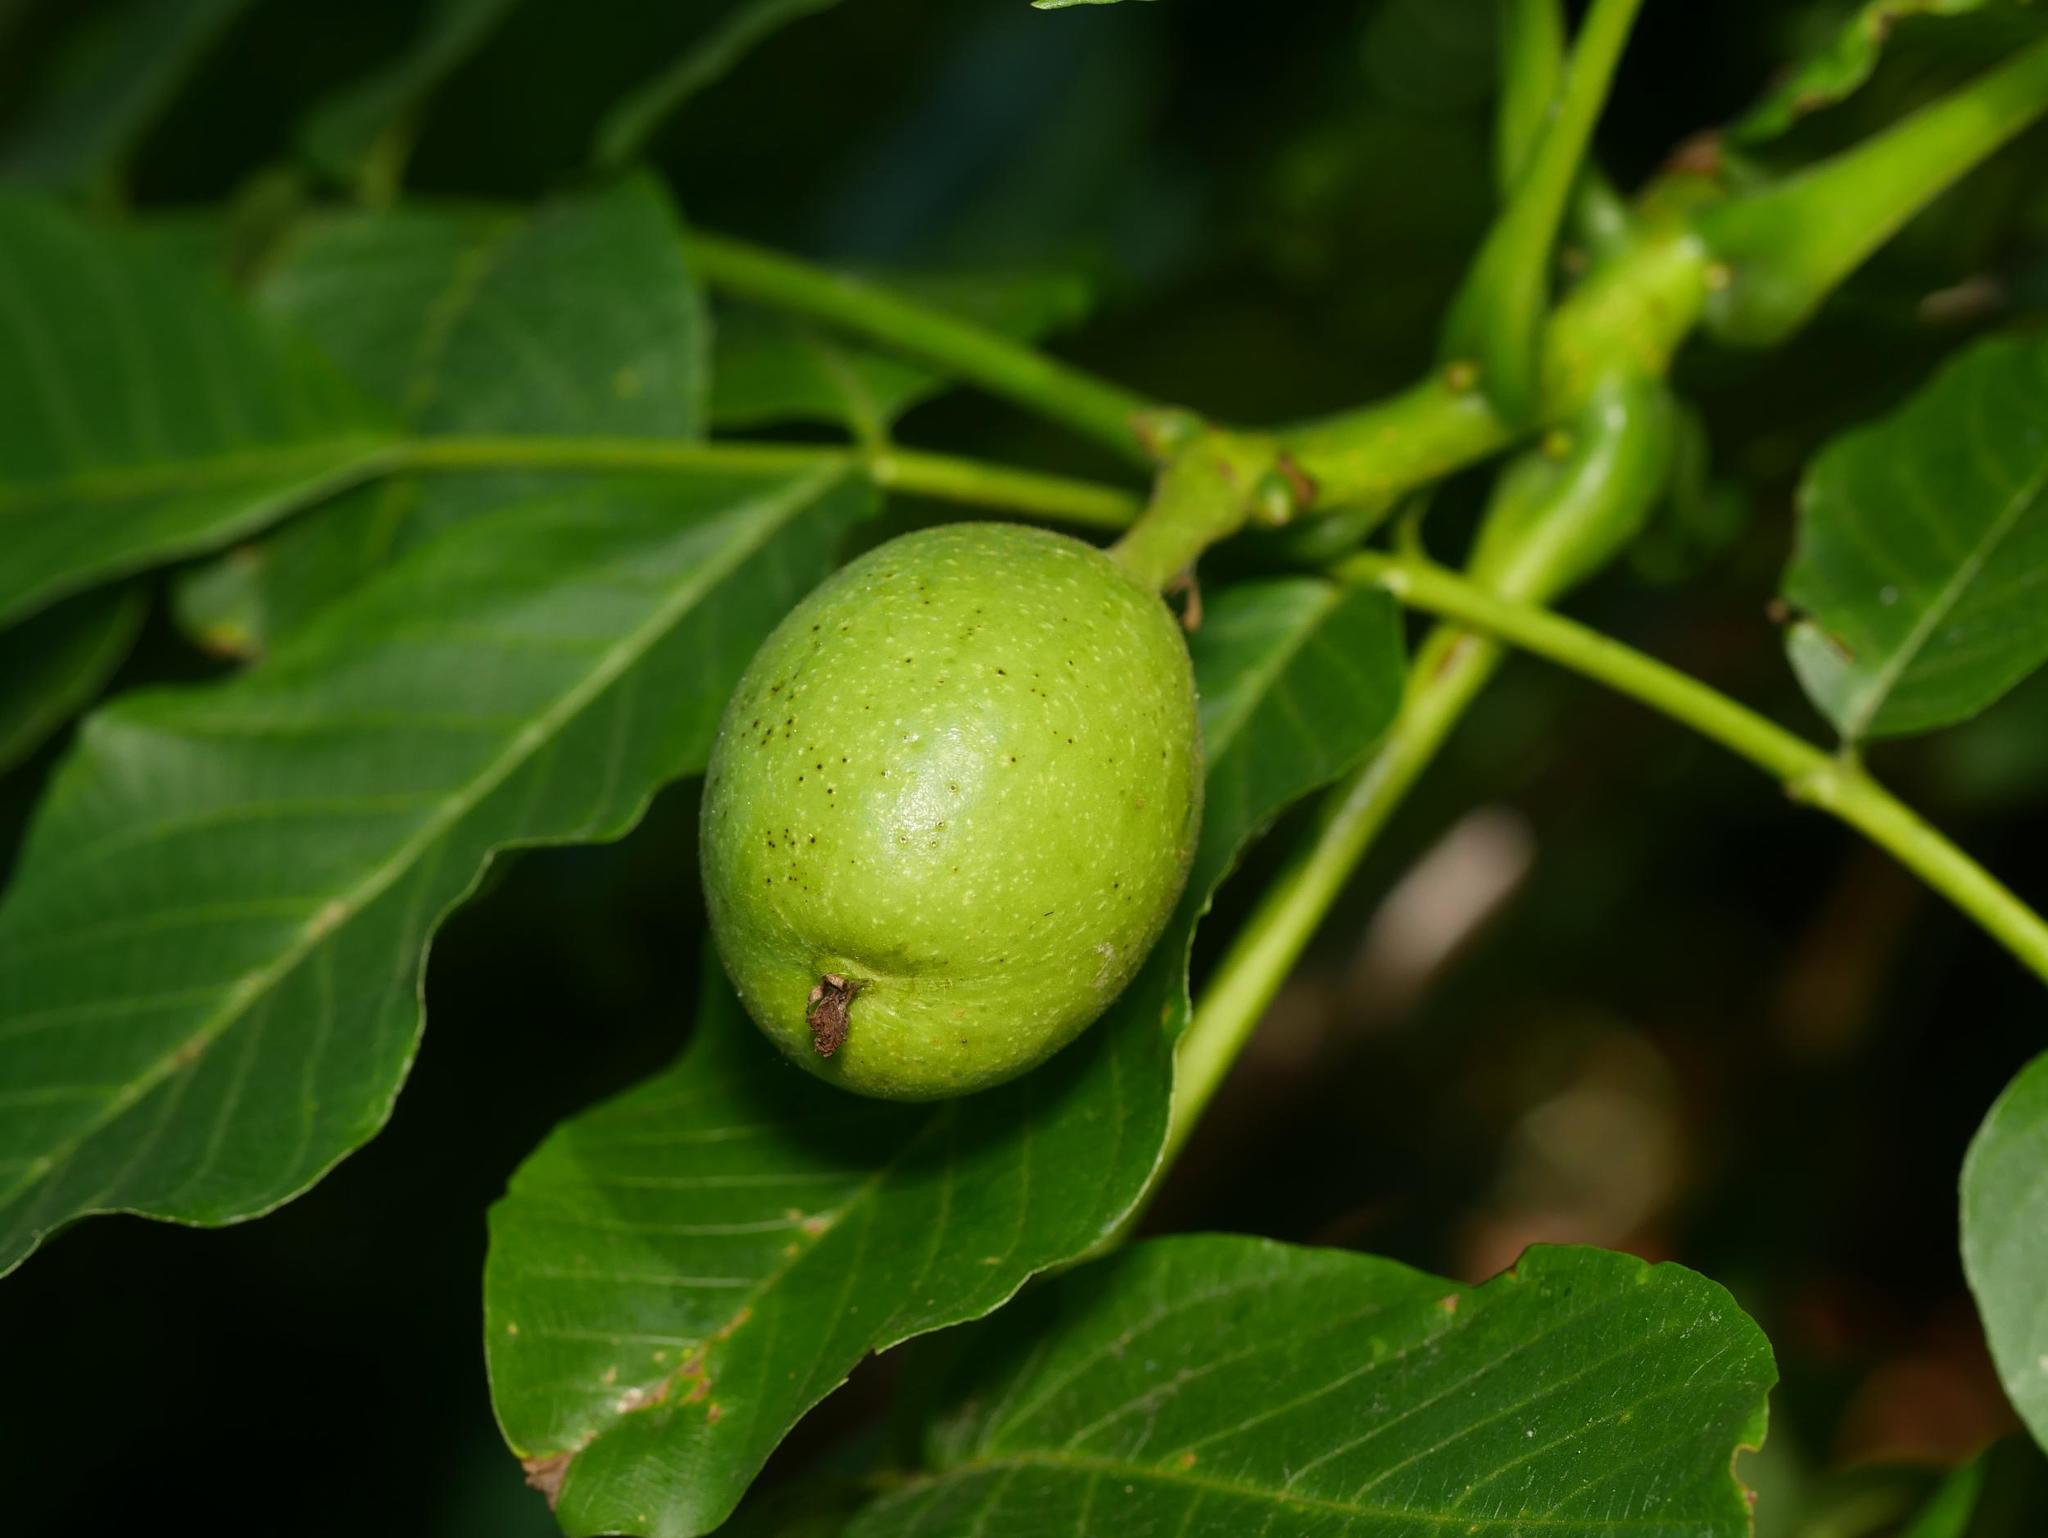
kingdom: Plantae
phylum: Tracheophyta
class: Magnoliopsida
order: Fagales
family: Juglandaceae
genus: Juglans
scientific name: Juglans regia
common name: Walnut
